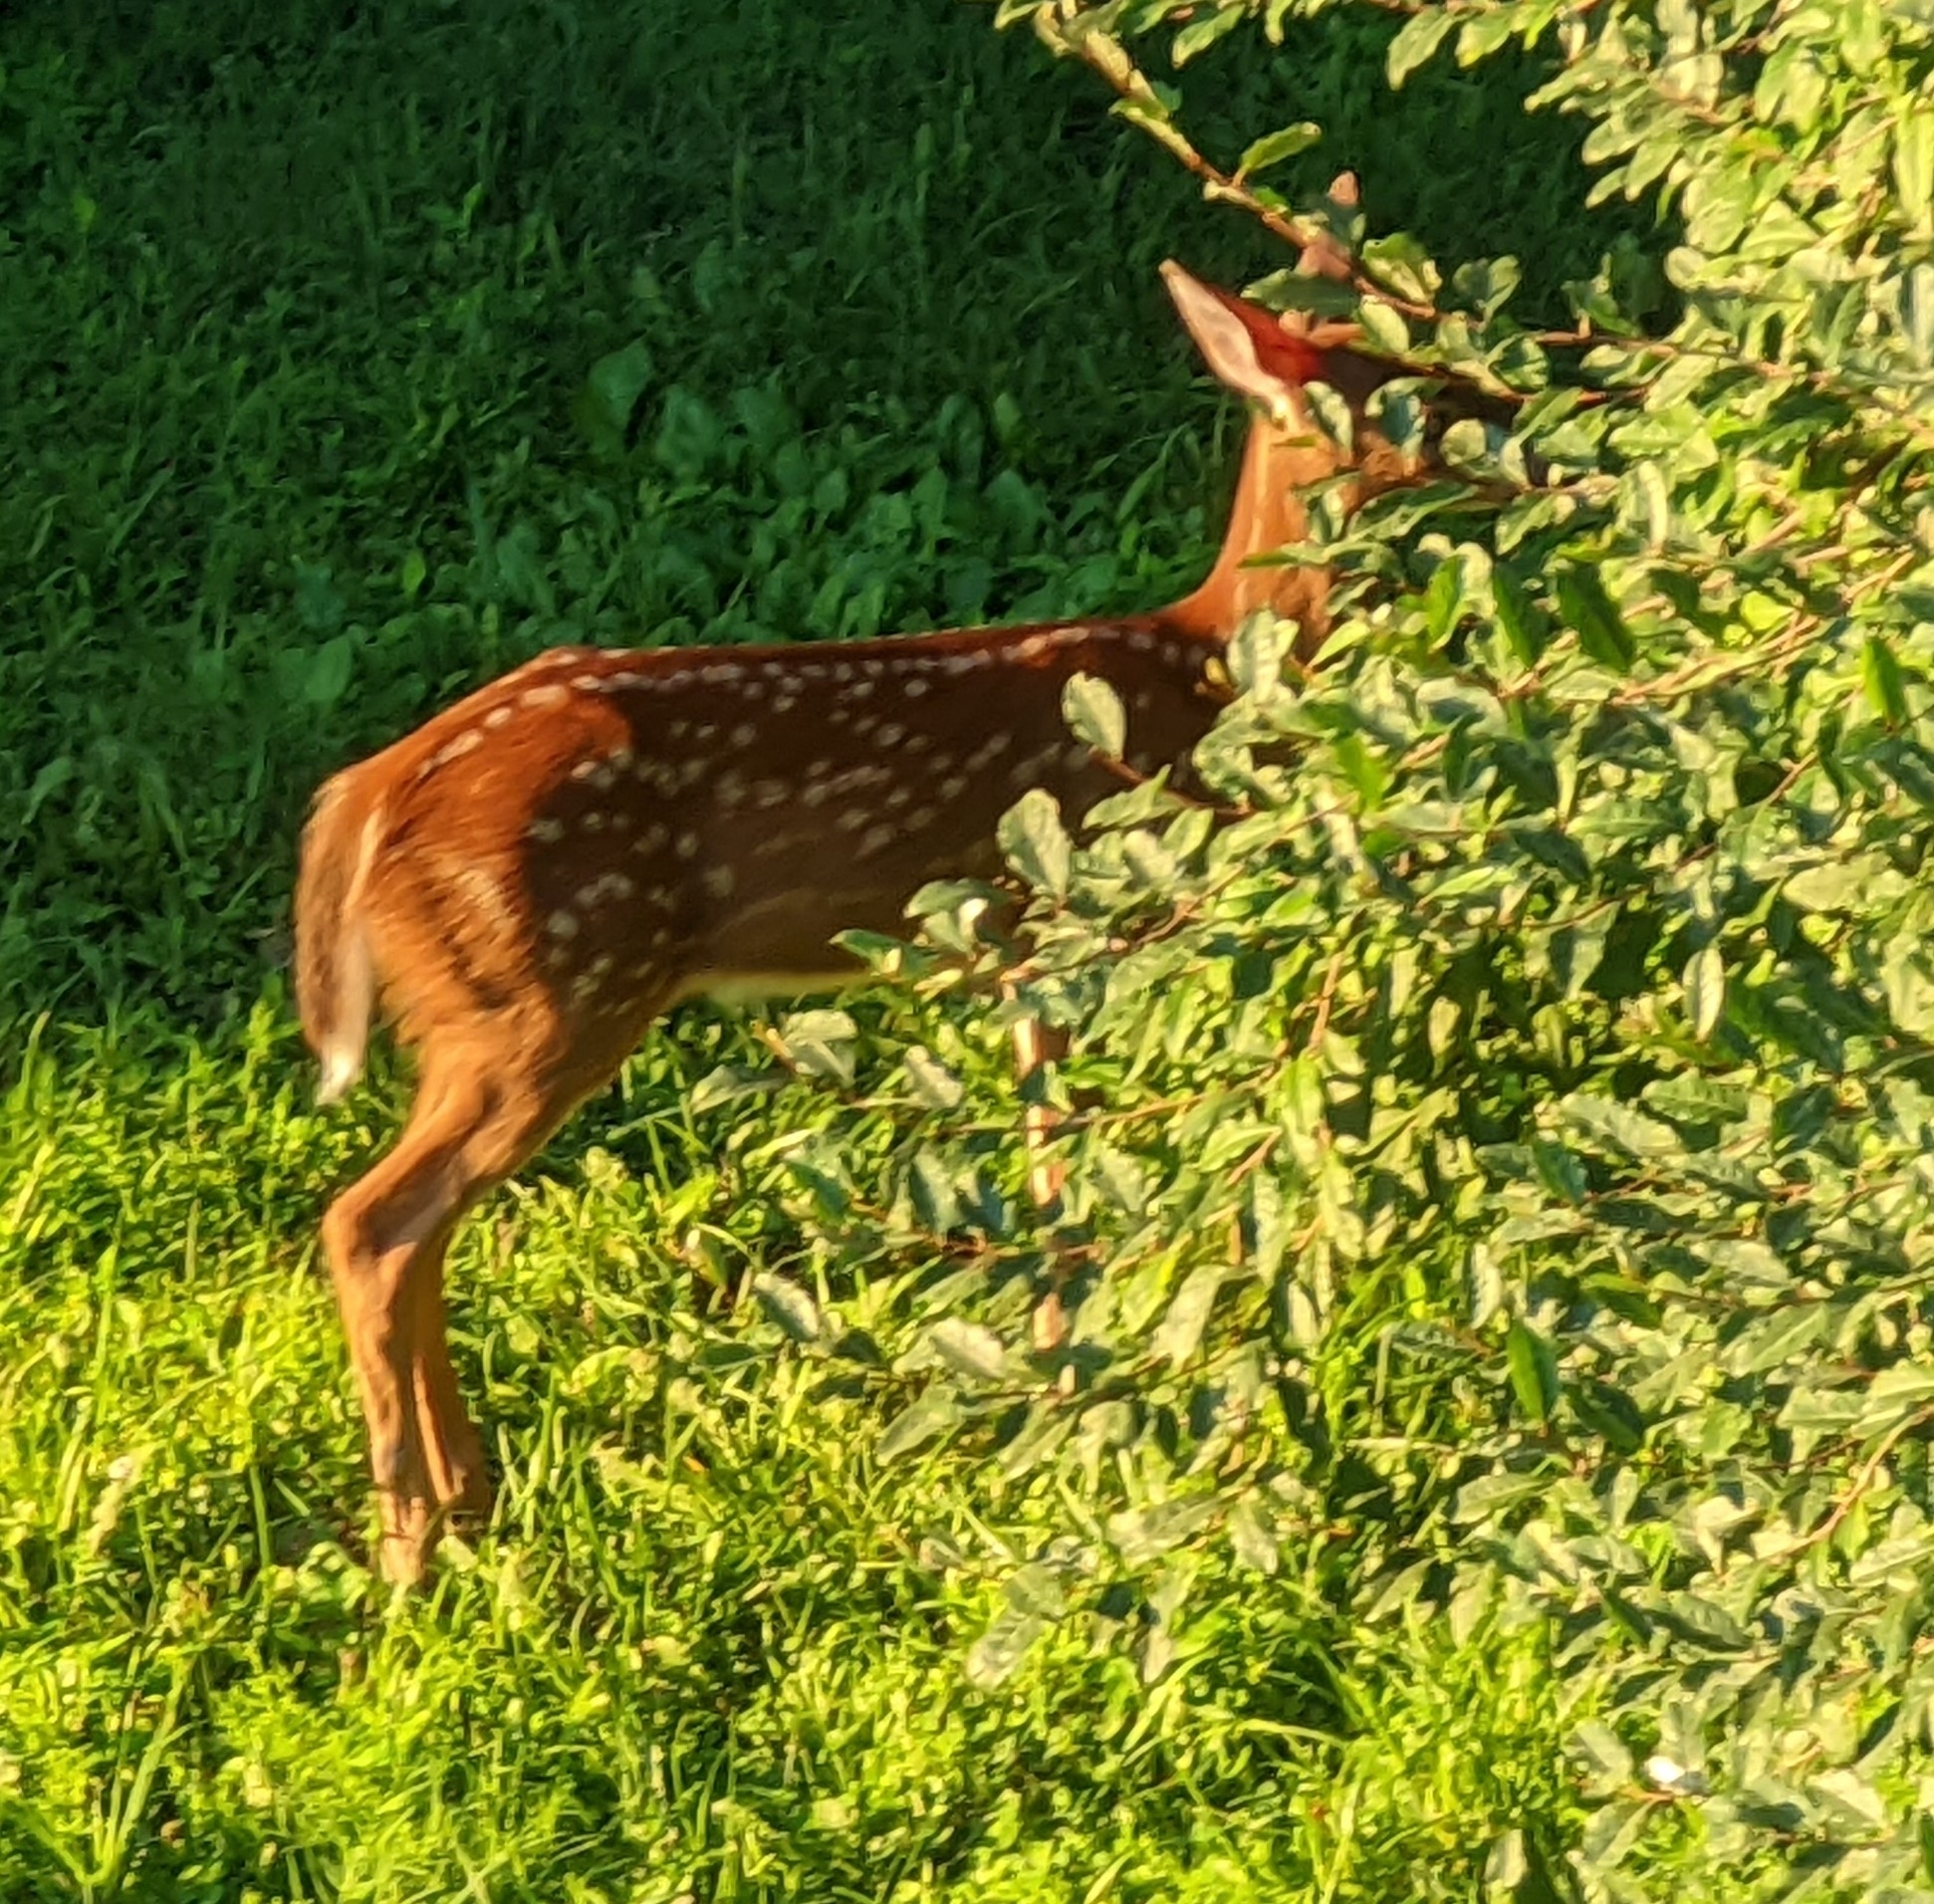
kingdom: Animalia
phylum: Chordata
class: Mammalia
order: Artiodactyla
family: Cervidae
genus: Odocoileus
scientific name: Odocoileus virginianus
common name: White-tailed deer
